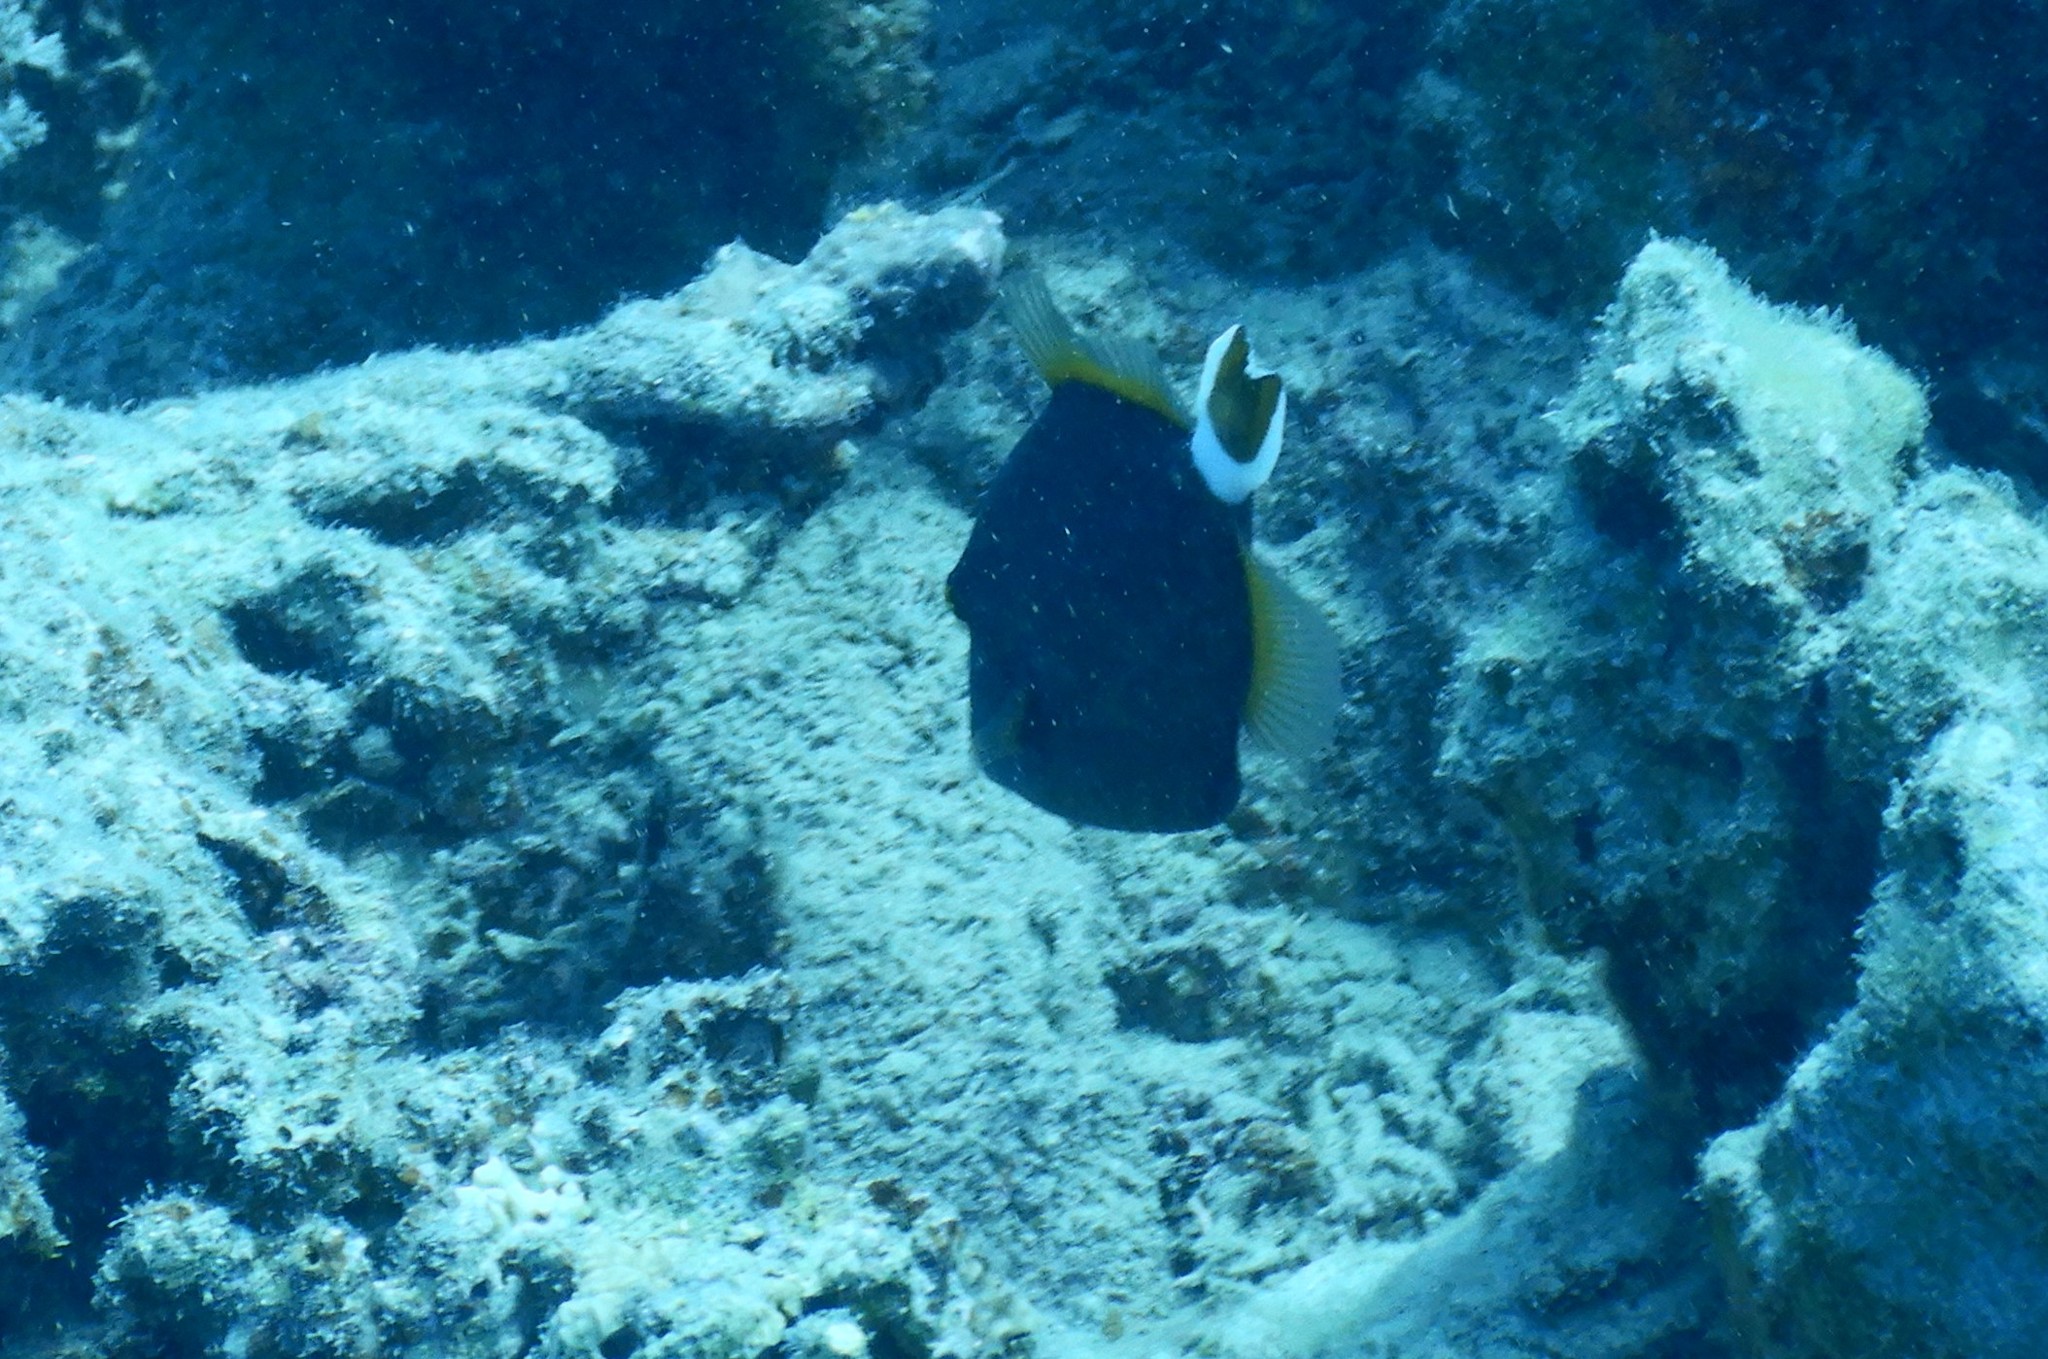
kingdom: Animalia
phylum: Chordata
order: Tetraodontiformes
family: Balistidae
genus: Sufflamen
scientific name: Sufflamen albicaudatum
